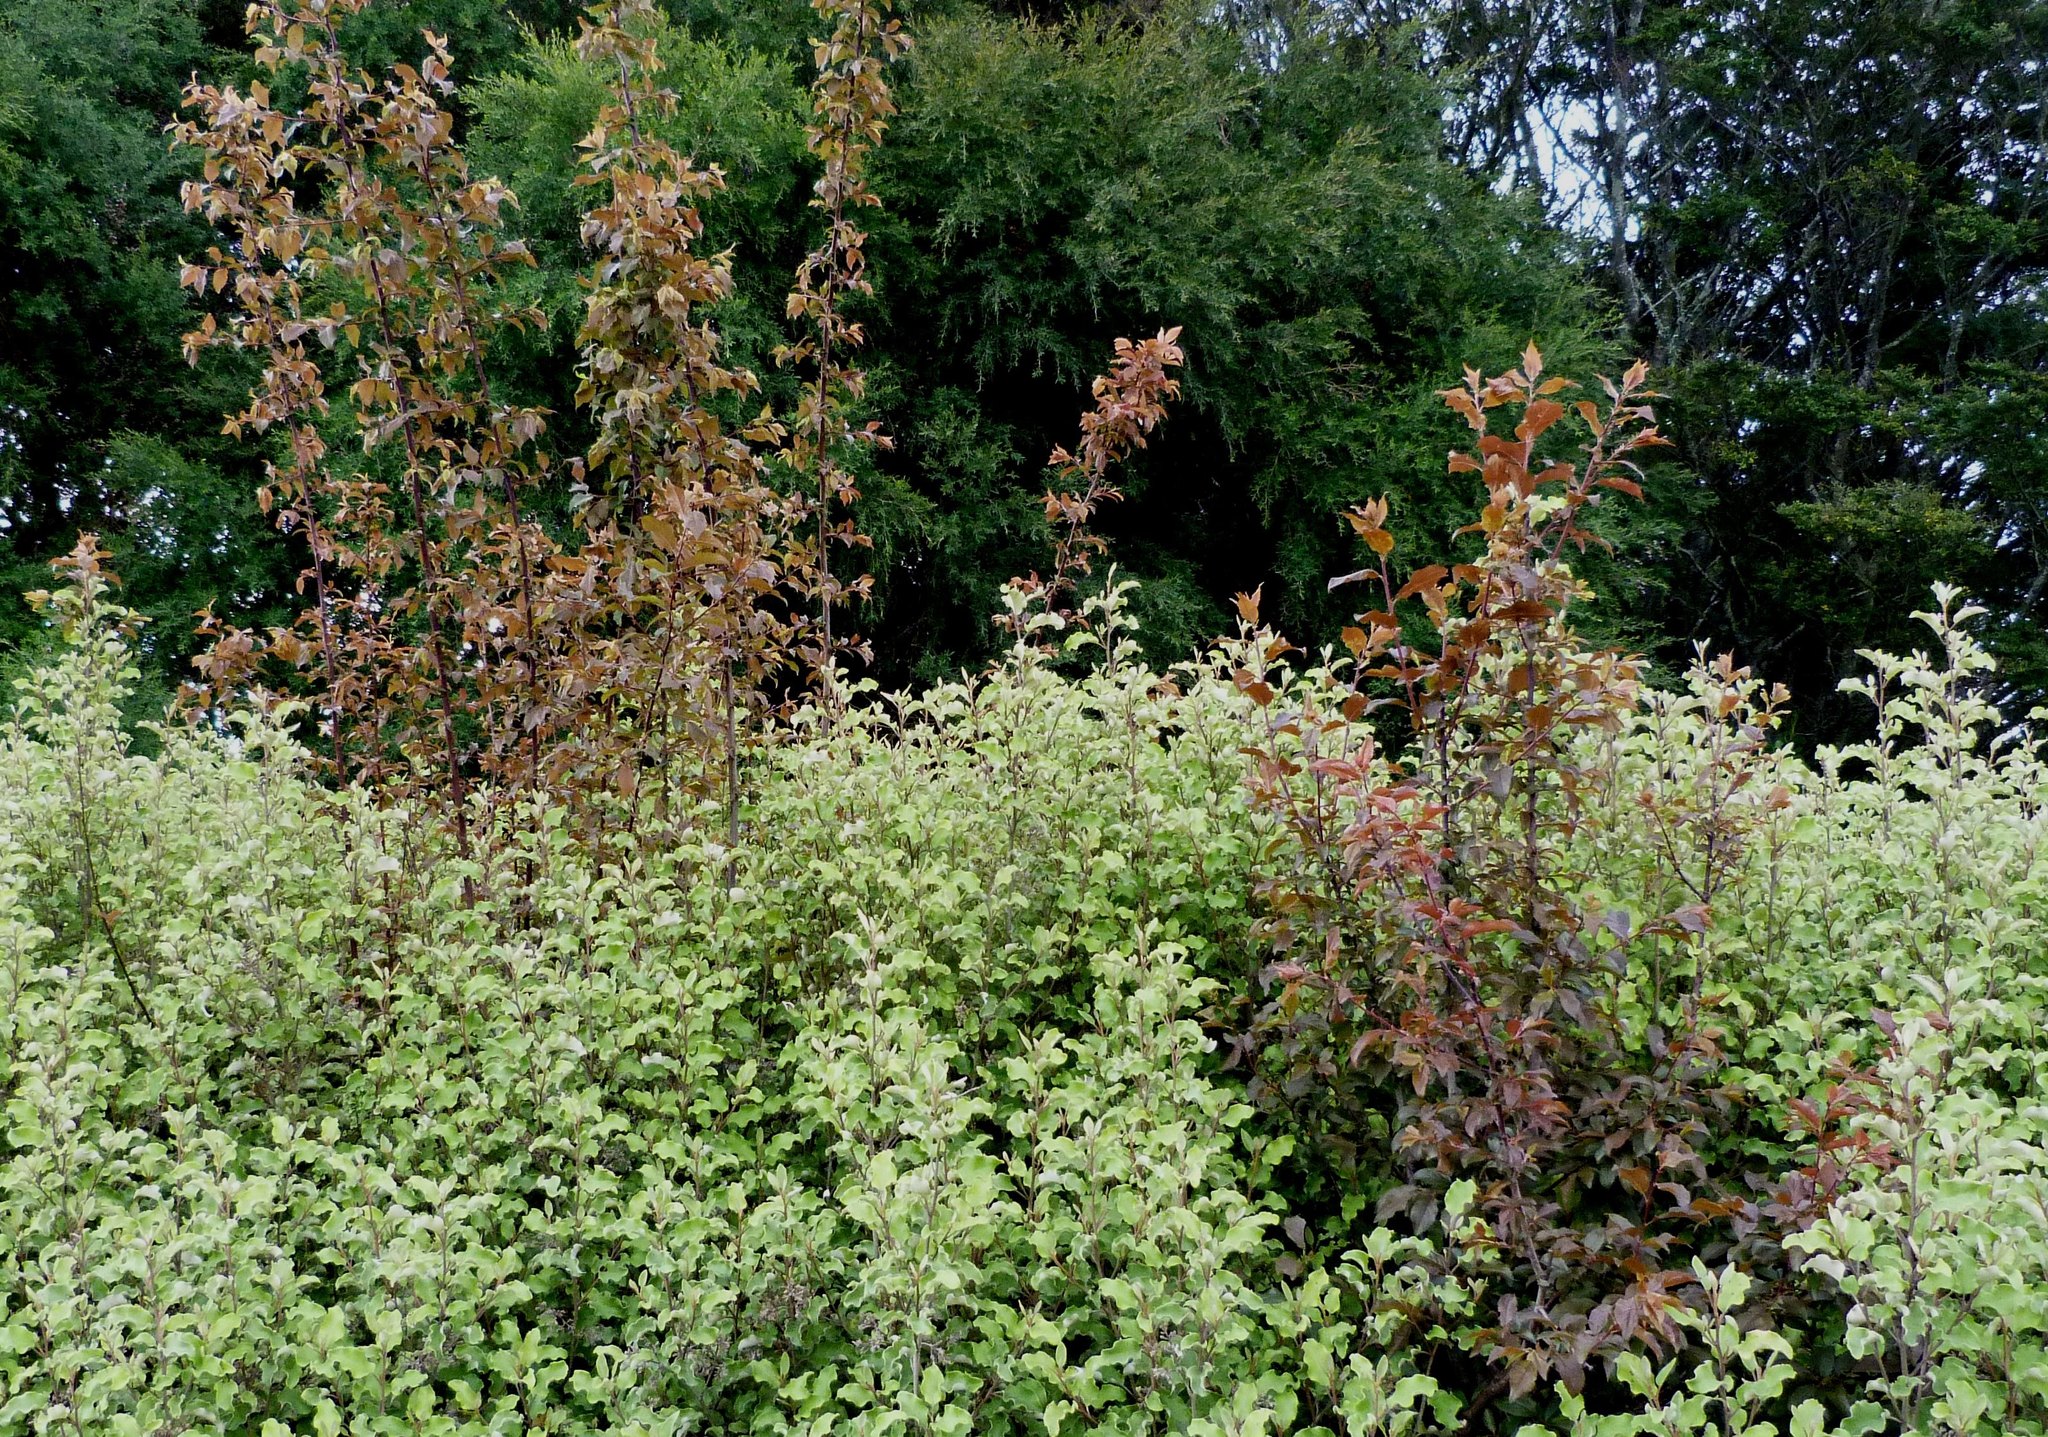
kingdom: Plantae
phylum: Tracheophyta
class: Magnoliopsida
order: Rosales
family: Rosaceae
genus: Prunus
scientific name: Prunus domestica
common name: Wild plum
